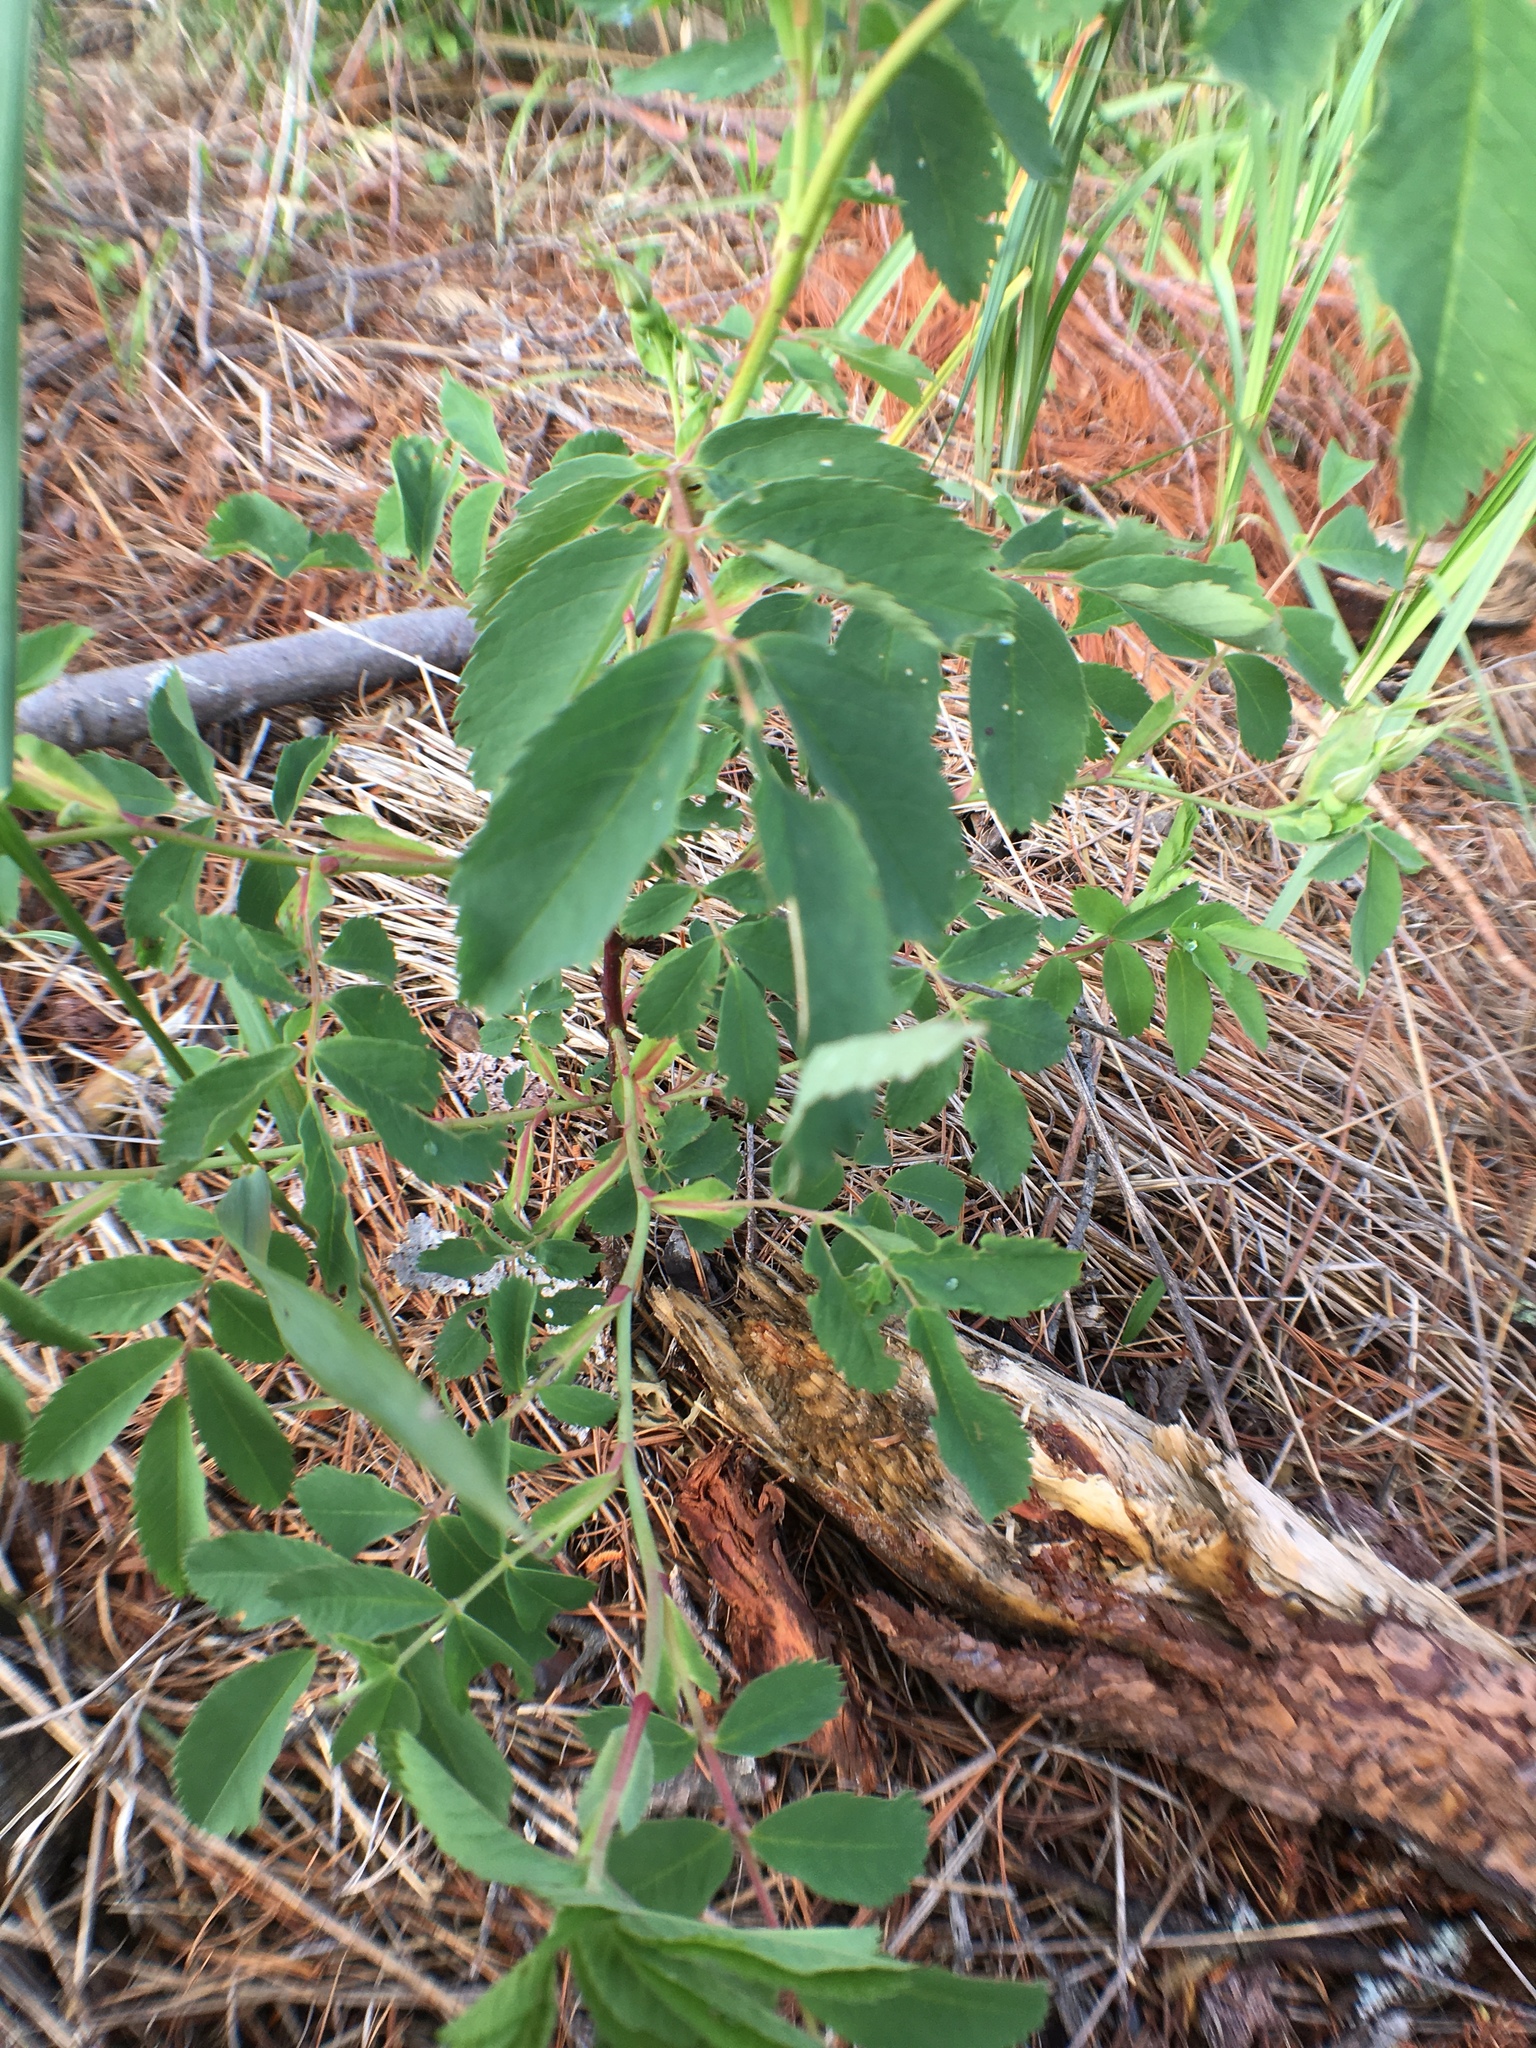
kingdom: Plantae
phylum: Tracheophyta
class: Magnoliopsida
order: Rosales
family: Rosaceae
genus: Rosa
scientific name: Rosa blanda
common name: Smooth rose
